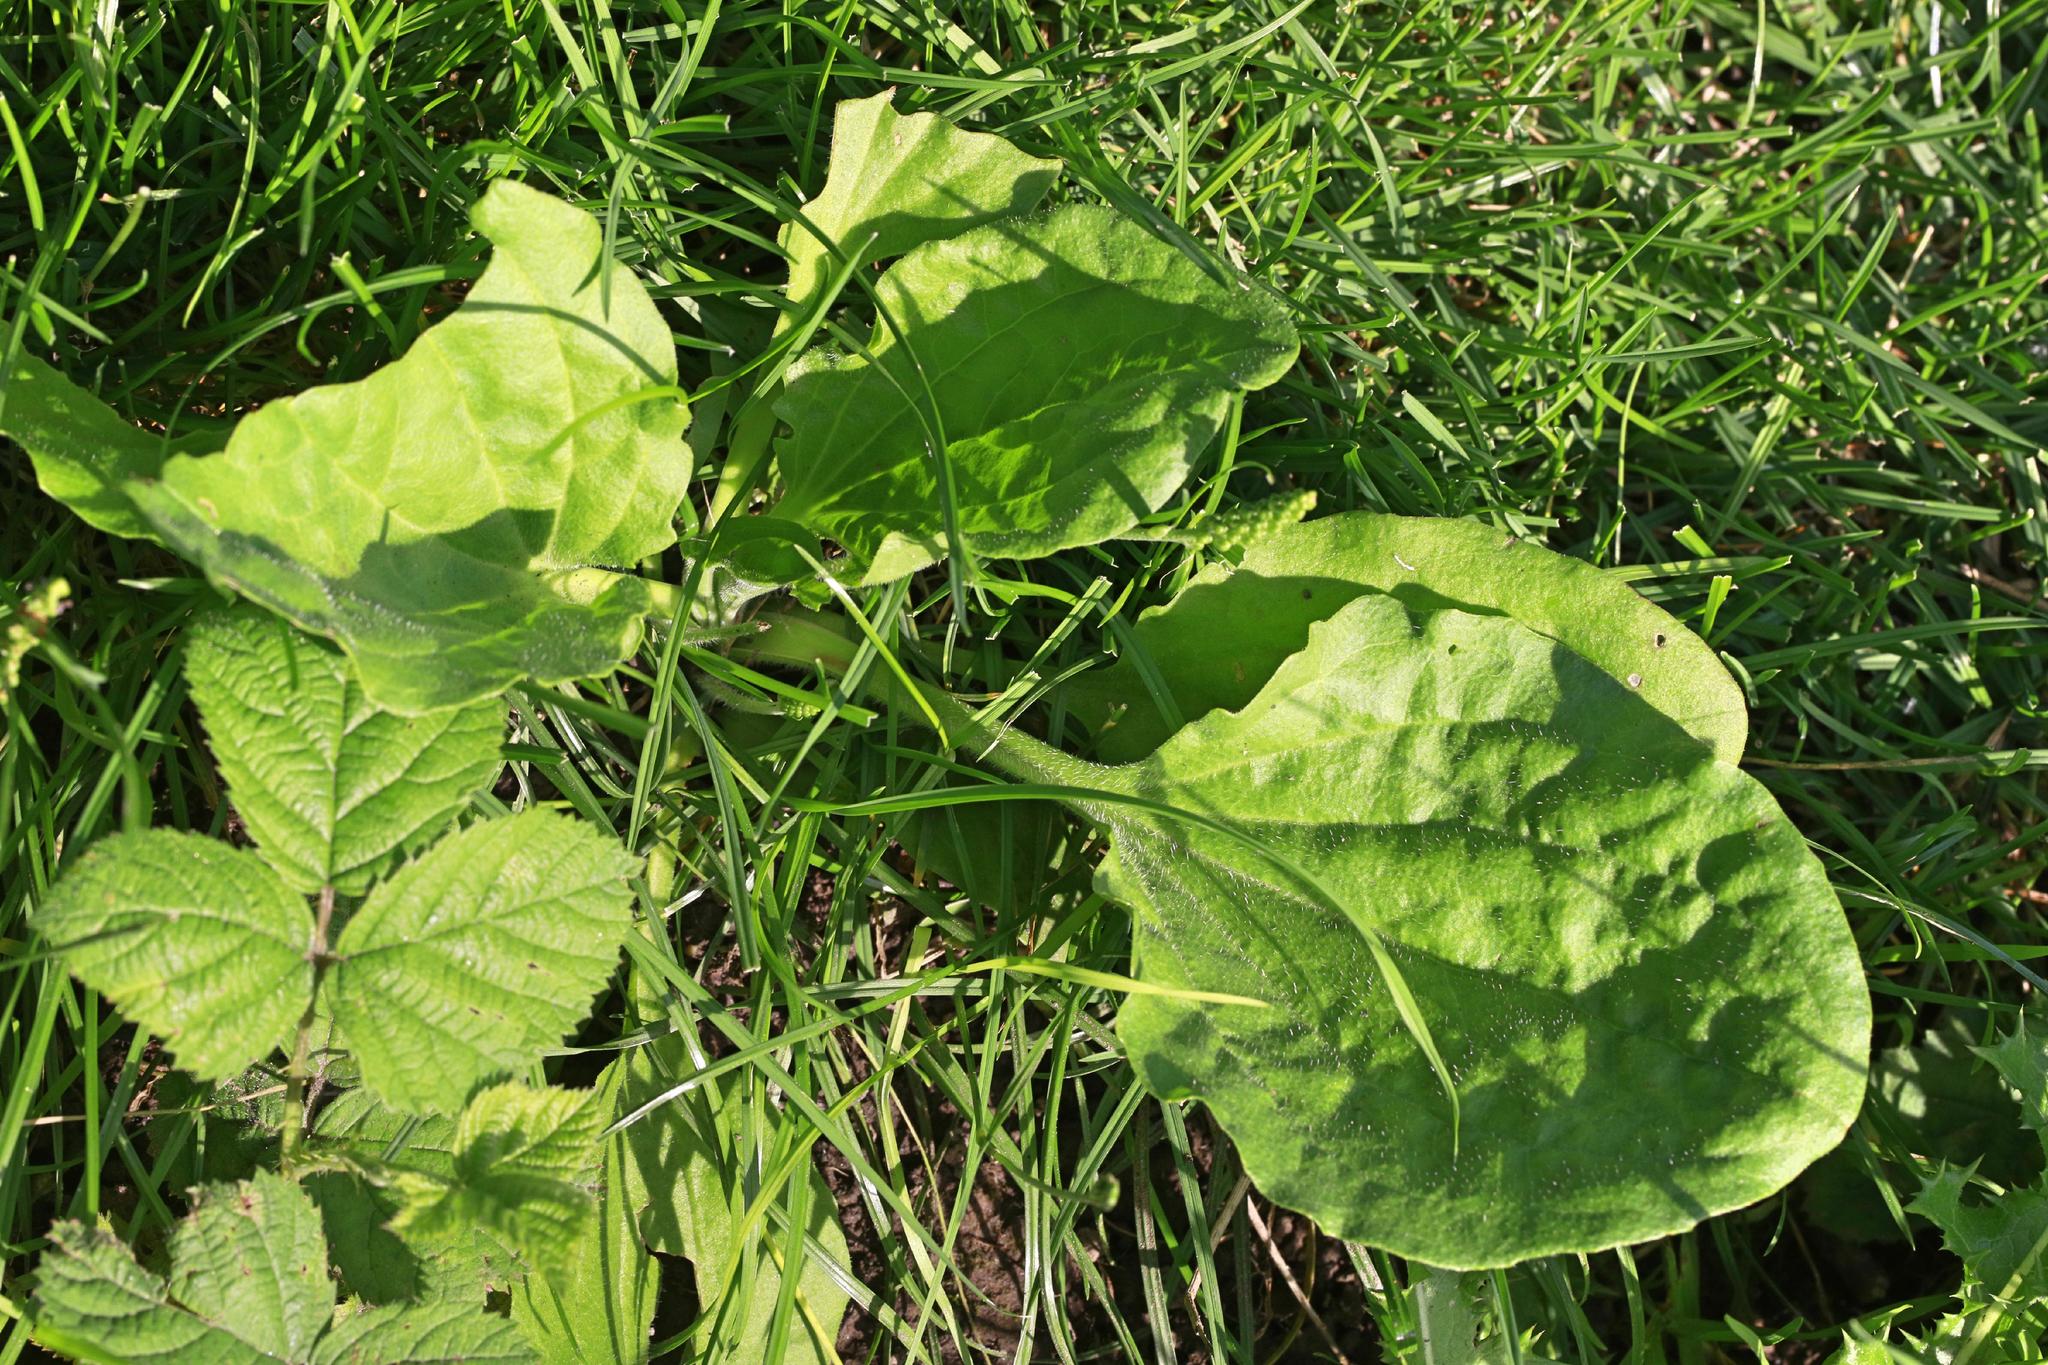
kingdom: Plantae
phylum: Tracheophyta
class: Magnoliopsida
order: Lamiales
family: Plantaginaceae
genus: Plantago
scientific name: Plantago major
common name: Common plantain
